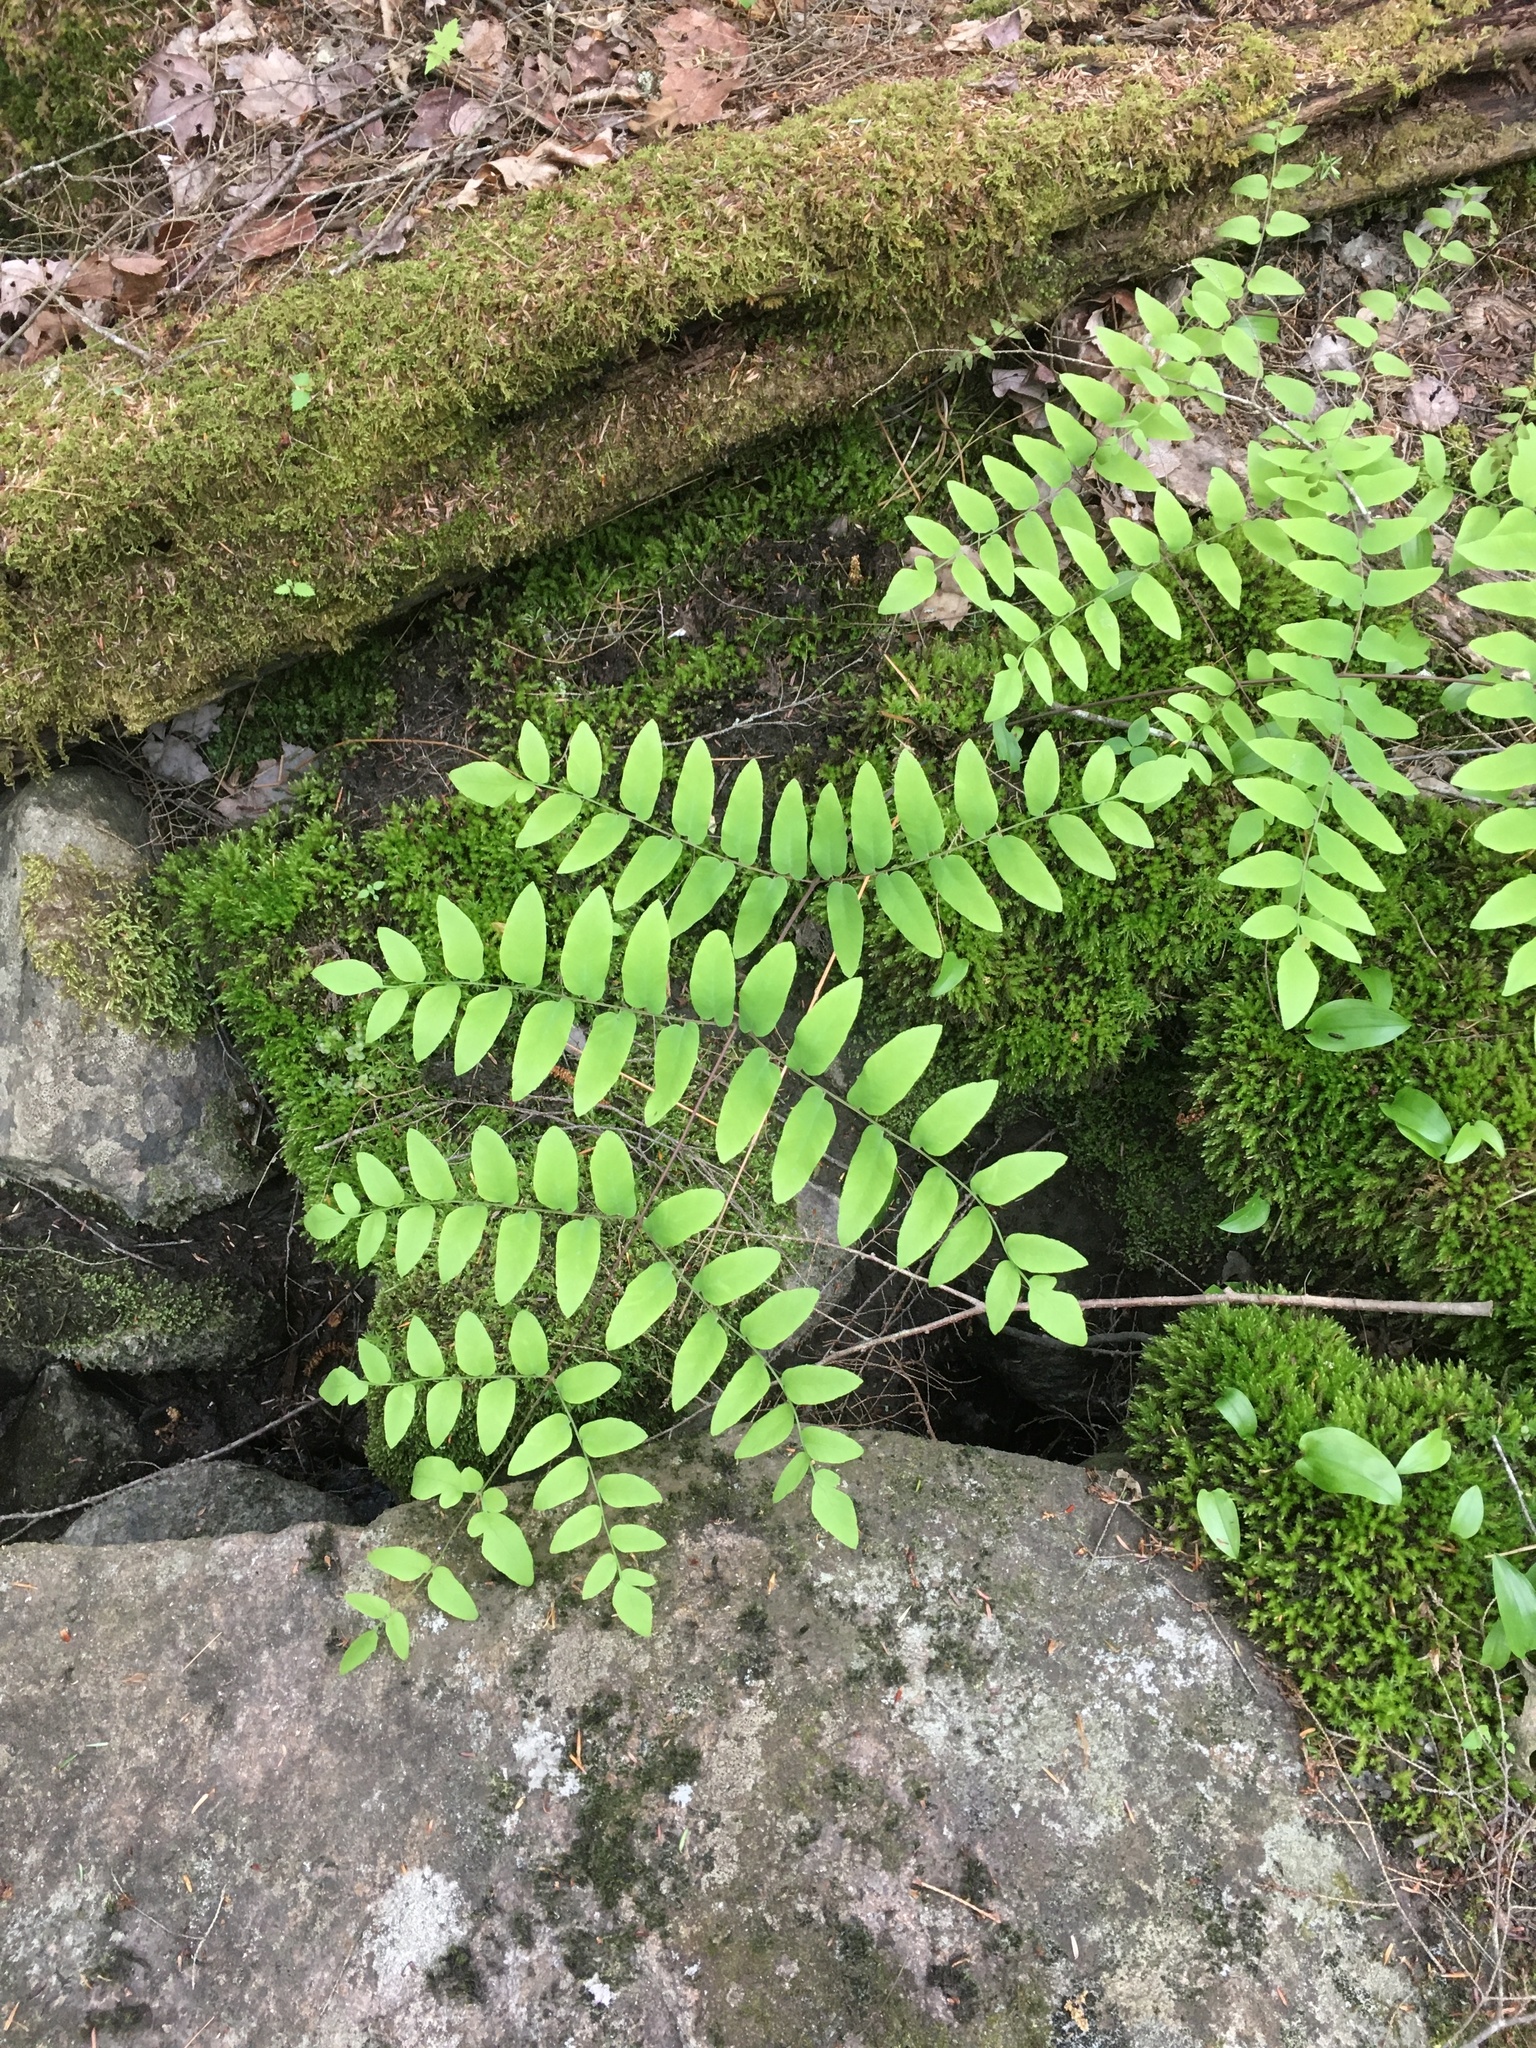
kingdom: Plantae
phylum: Tracheophyta
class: Polypodiopsida
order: Osmundales
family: Osmundaceae
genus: Osmunda
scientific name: Osmunda spectabilis
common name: American royal fern
